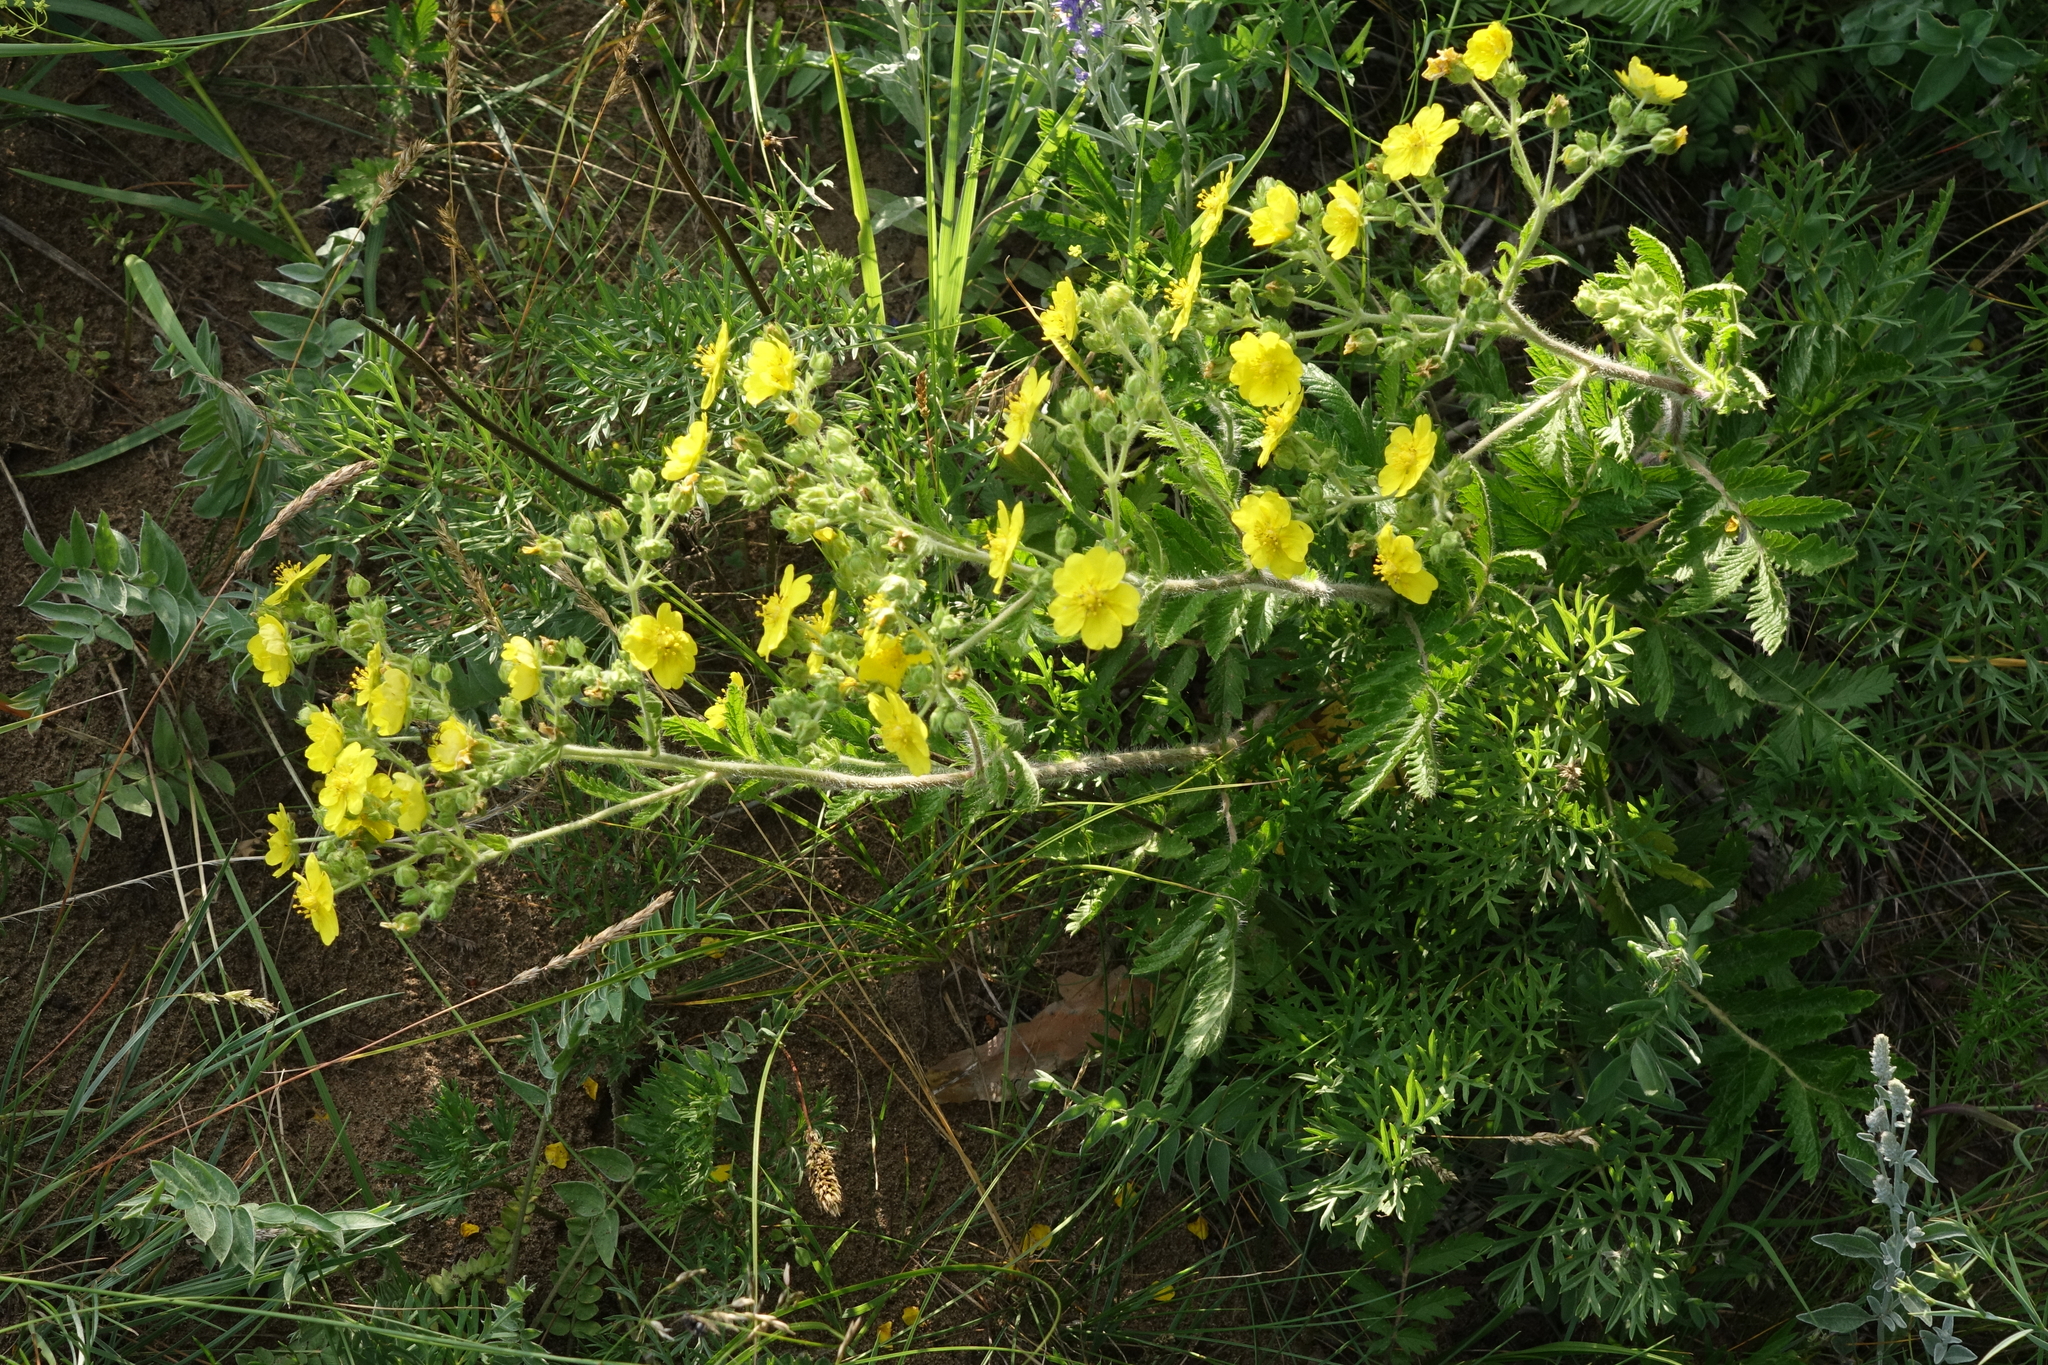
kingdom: Plantae
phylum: Tracheophyta
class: Magnoliopsida
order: Rosales
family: Rosaceae
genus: Potentilla
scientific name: Potentilla tanacetifolia
